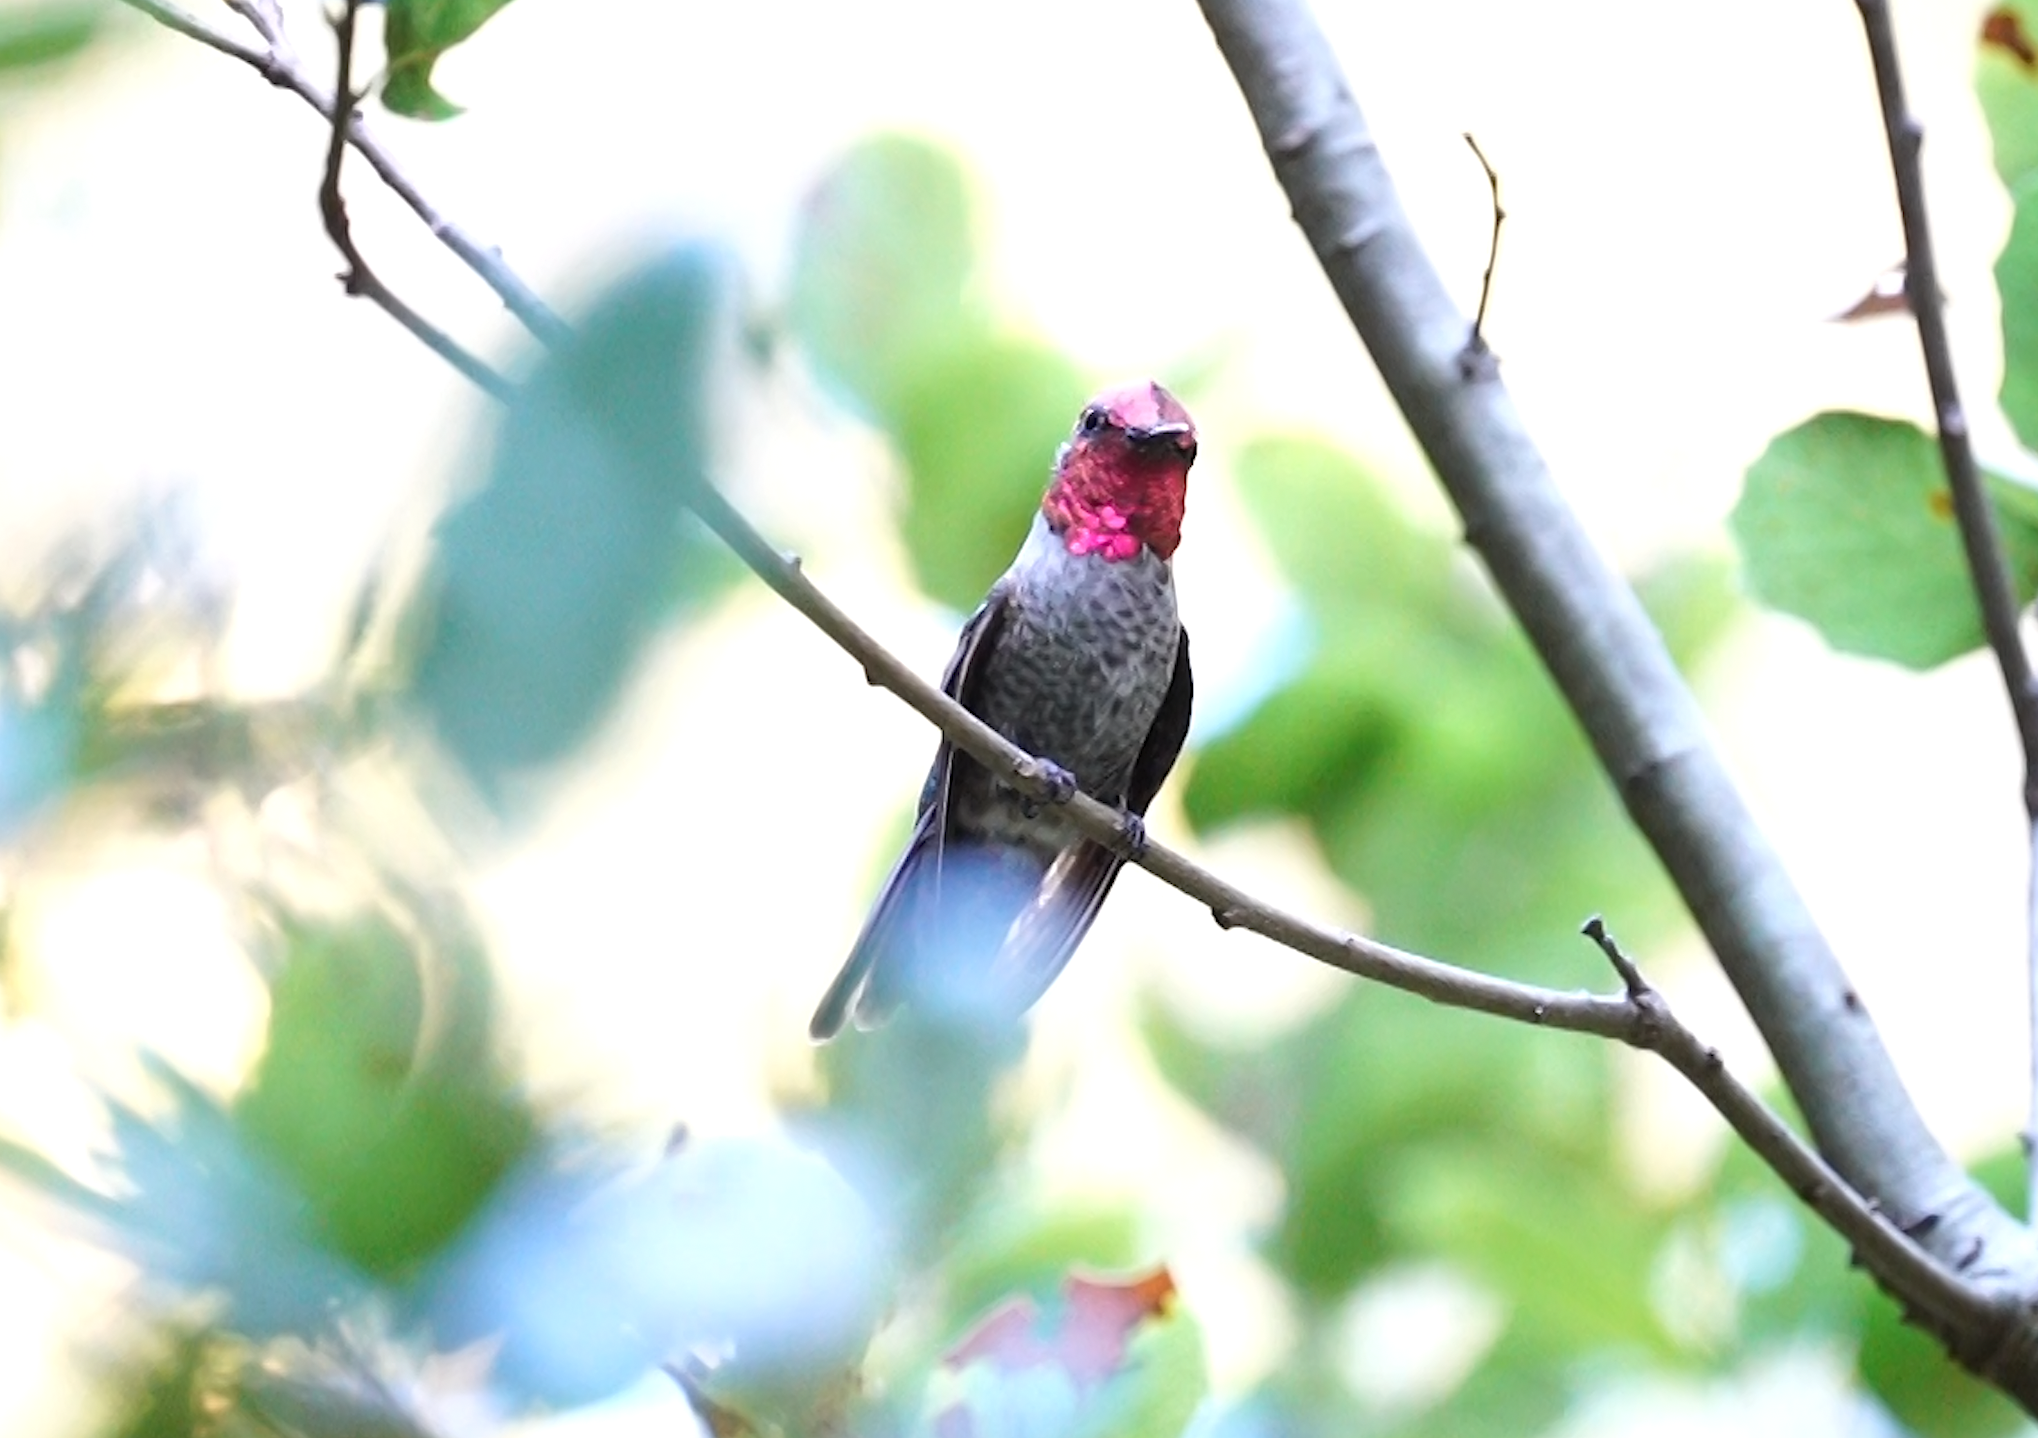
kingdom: Animalia
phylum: Chordata
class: Aves
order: Apodiformes
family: Trochilidae
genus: Calypte
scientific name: Calypte anna
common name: Anna's hummingbird
